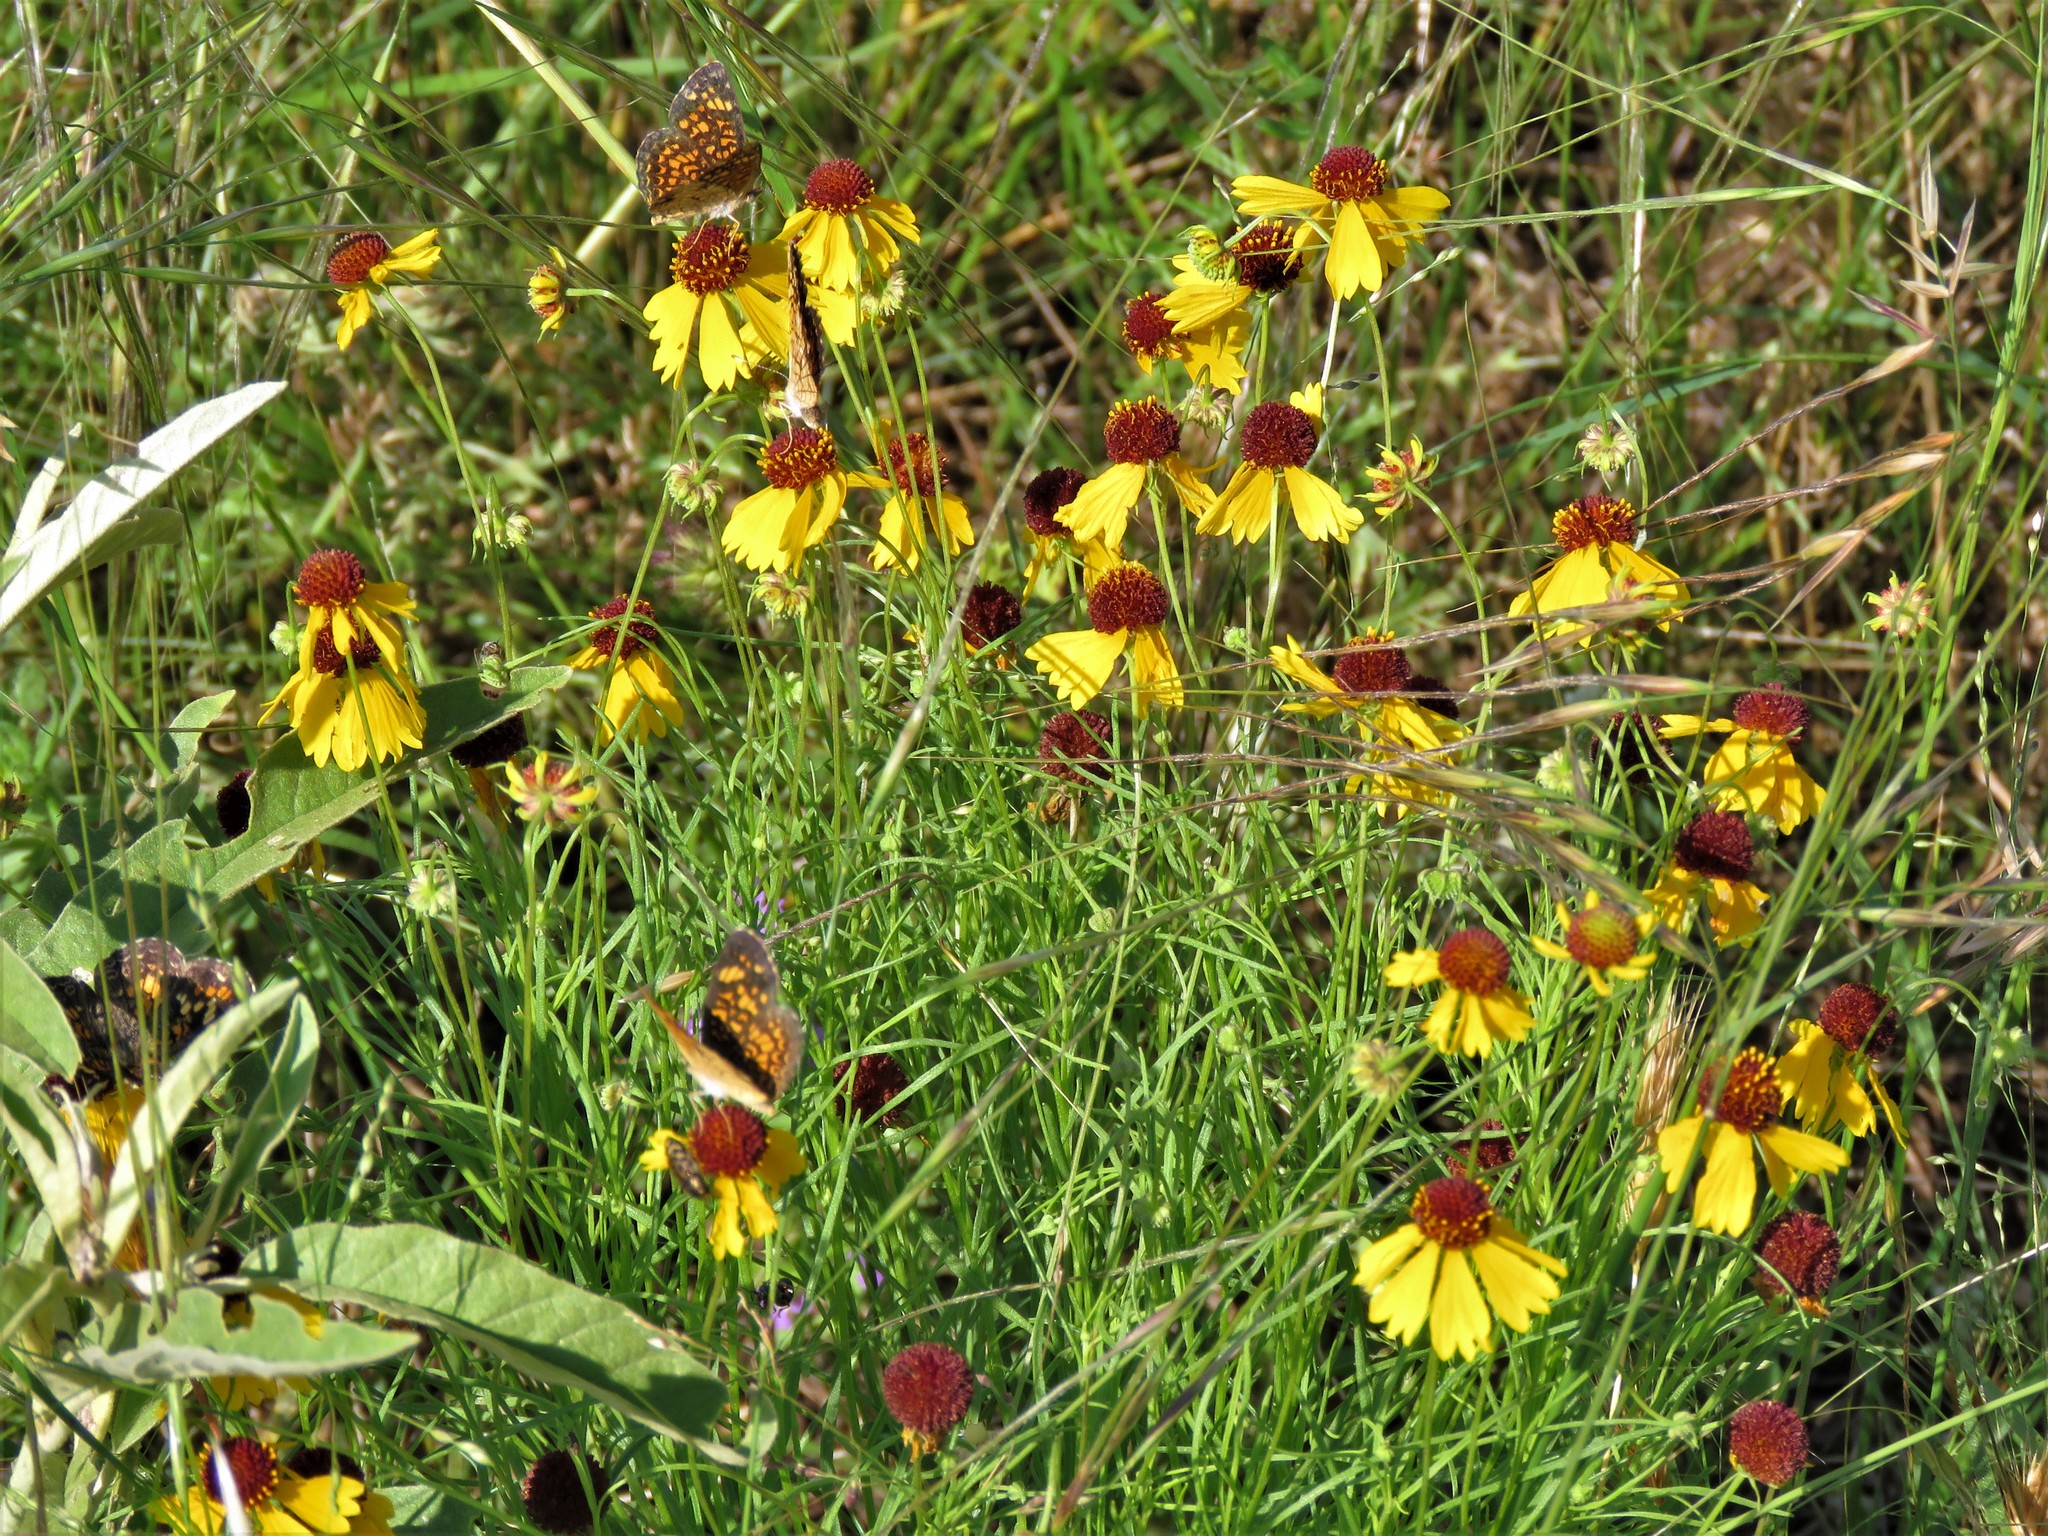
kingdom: Plantae
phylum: Tracheophyta
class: Magnoliopsida
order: Asterales
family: Asteraceae
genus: Helenium
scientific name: Helenium amarum
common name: Bitter sneezeweed
